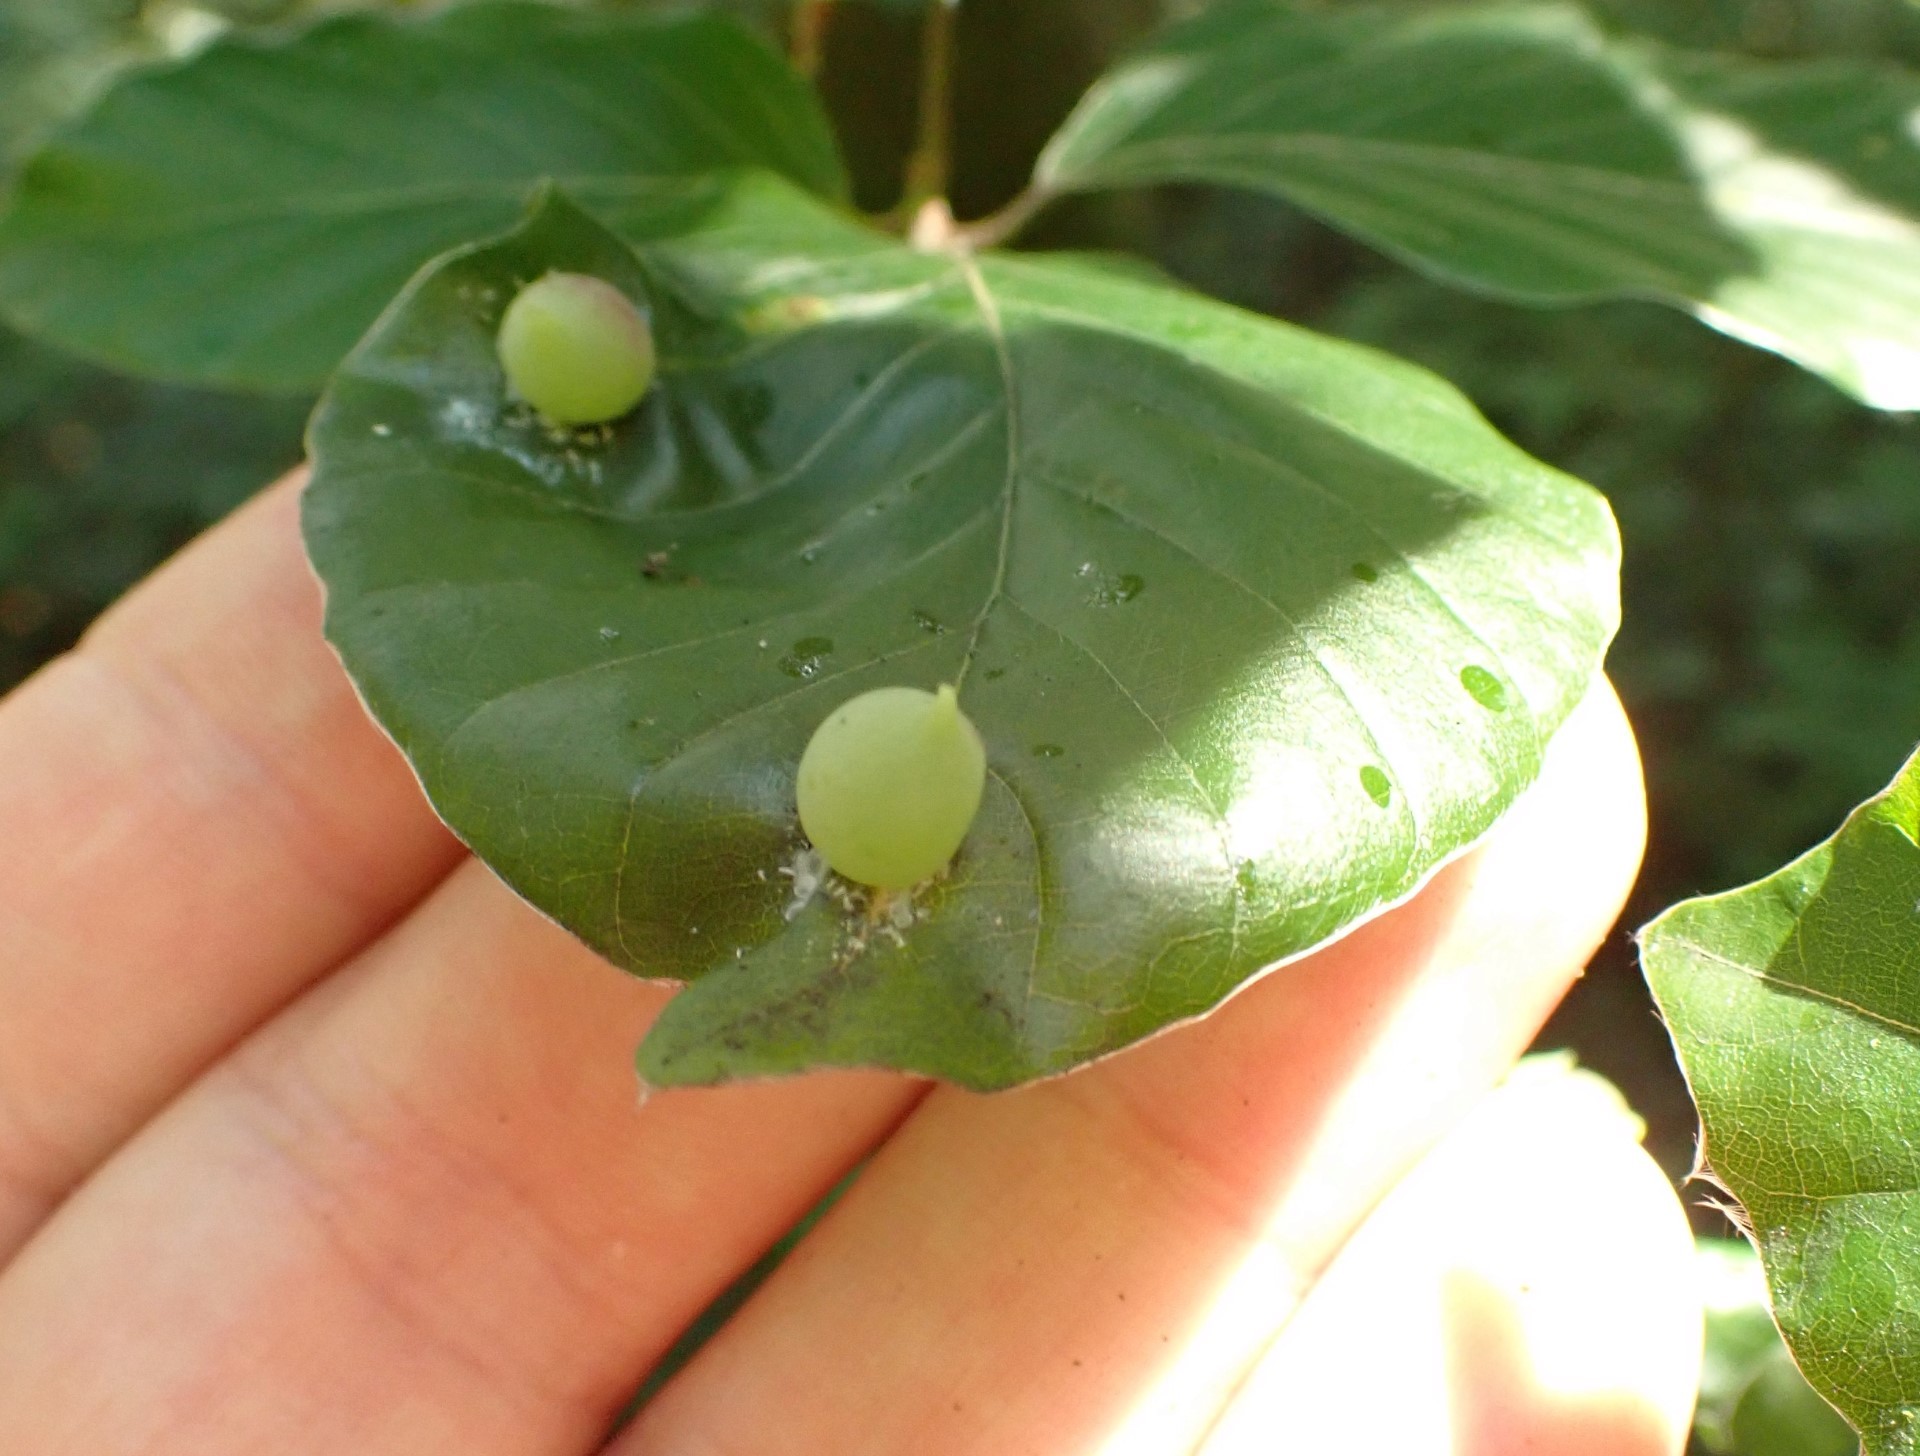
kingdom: Animalia
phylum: Arthropoda
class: Insecta
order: Diptera
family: Cecidomyiidae
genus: Mikiola
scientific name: Mikiola fagi
